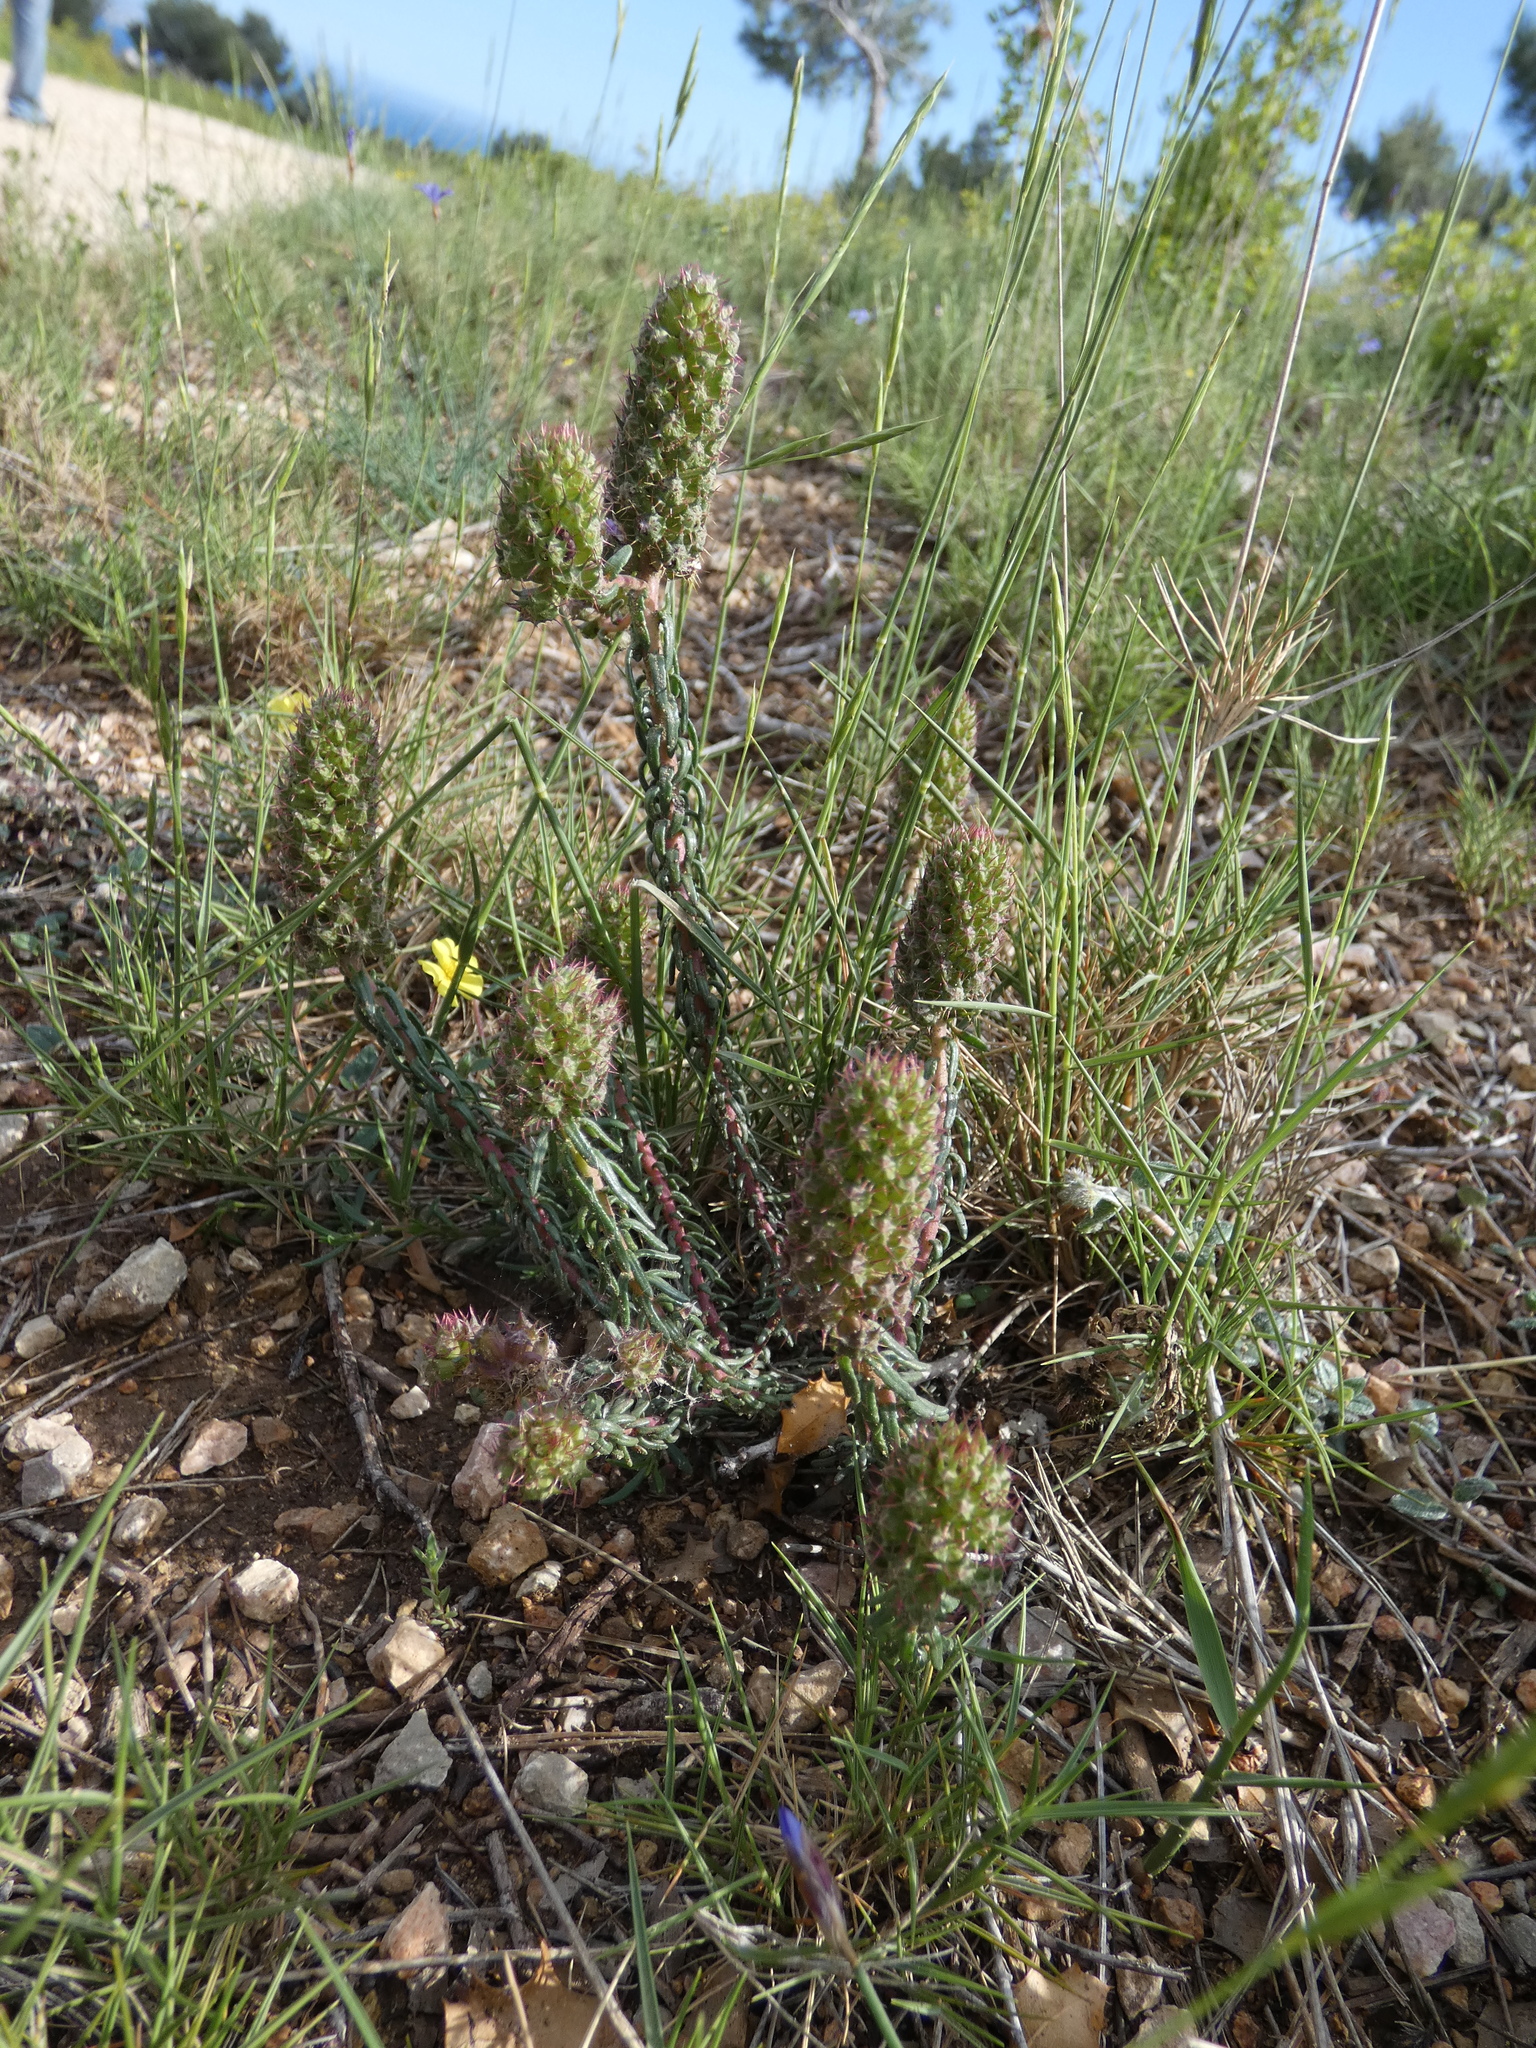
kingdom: Plantae
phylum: Tracheophyta
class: Magnoliopsida
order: Ericales
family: Primulaceae
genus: Coris
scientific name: Coris monspeliensis
